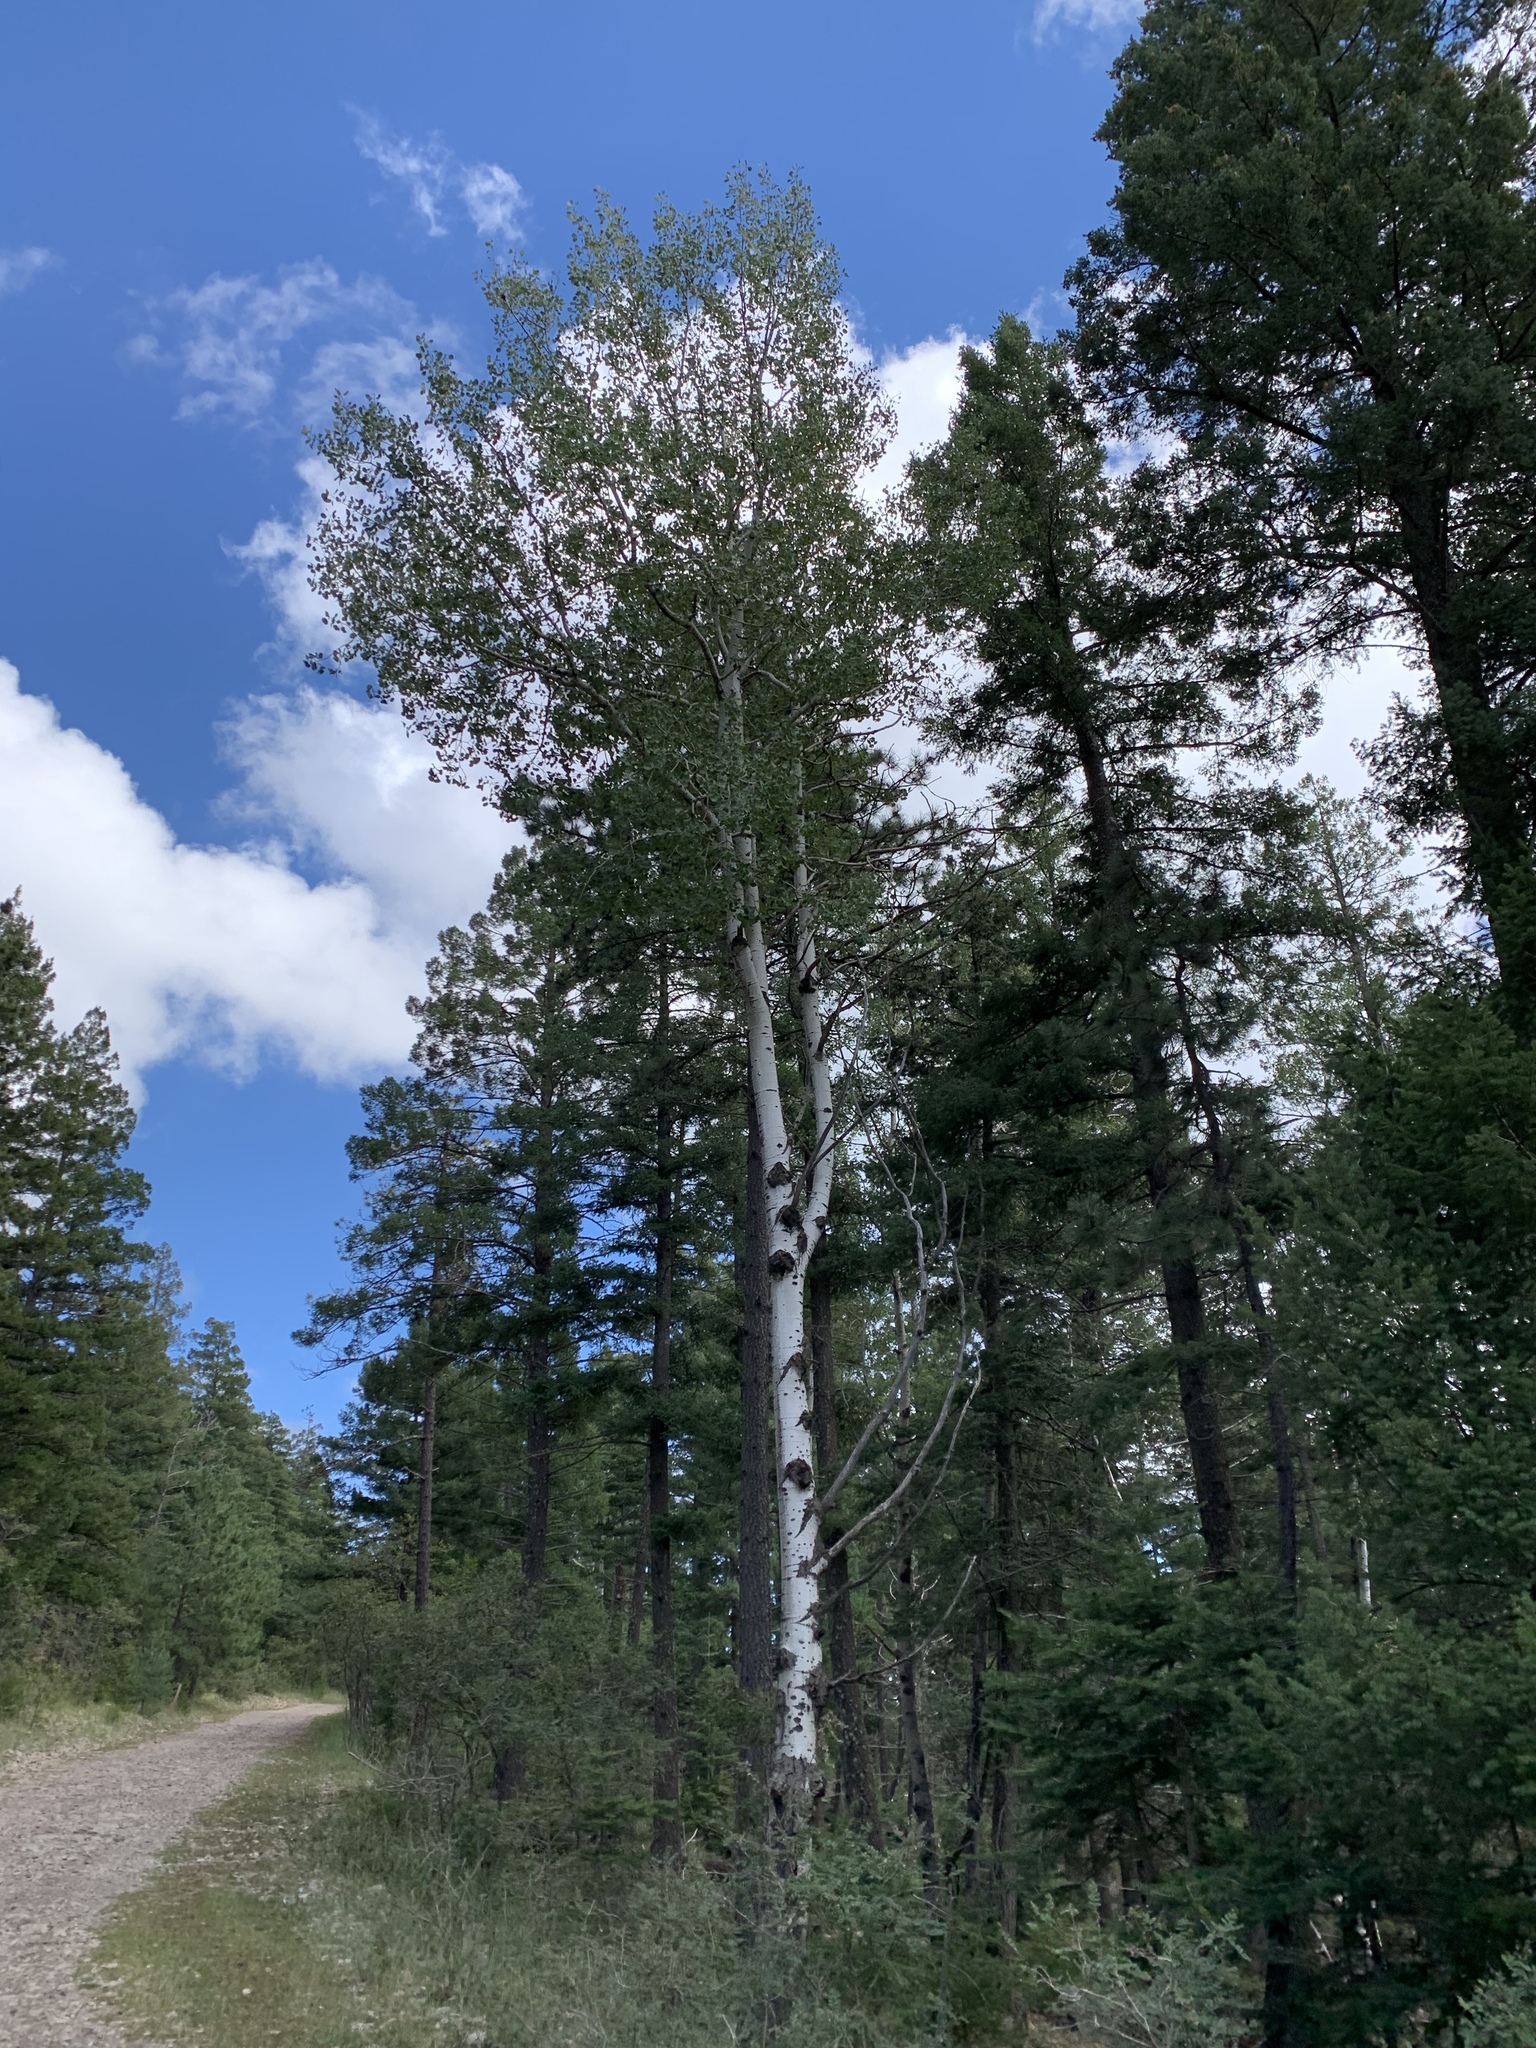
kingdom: Plantae
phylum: Tracheophyta
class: Magnoliopsida
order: Malpighiales
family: Salicaceae
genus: Populus
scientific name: Populus tremuloides
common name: Quaking aspen
